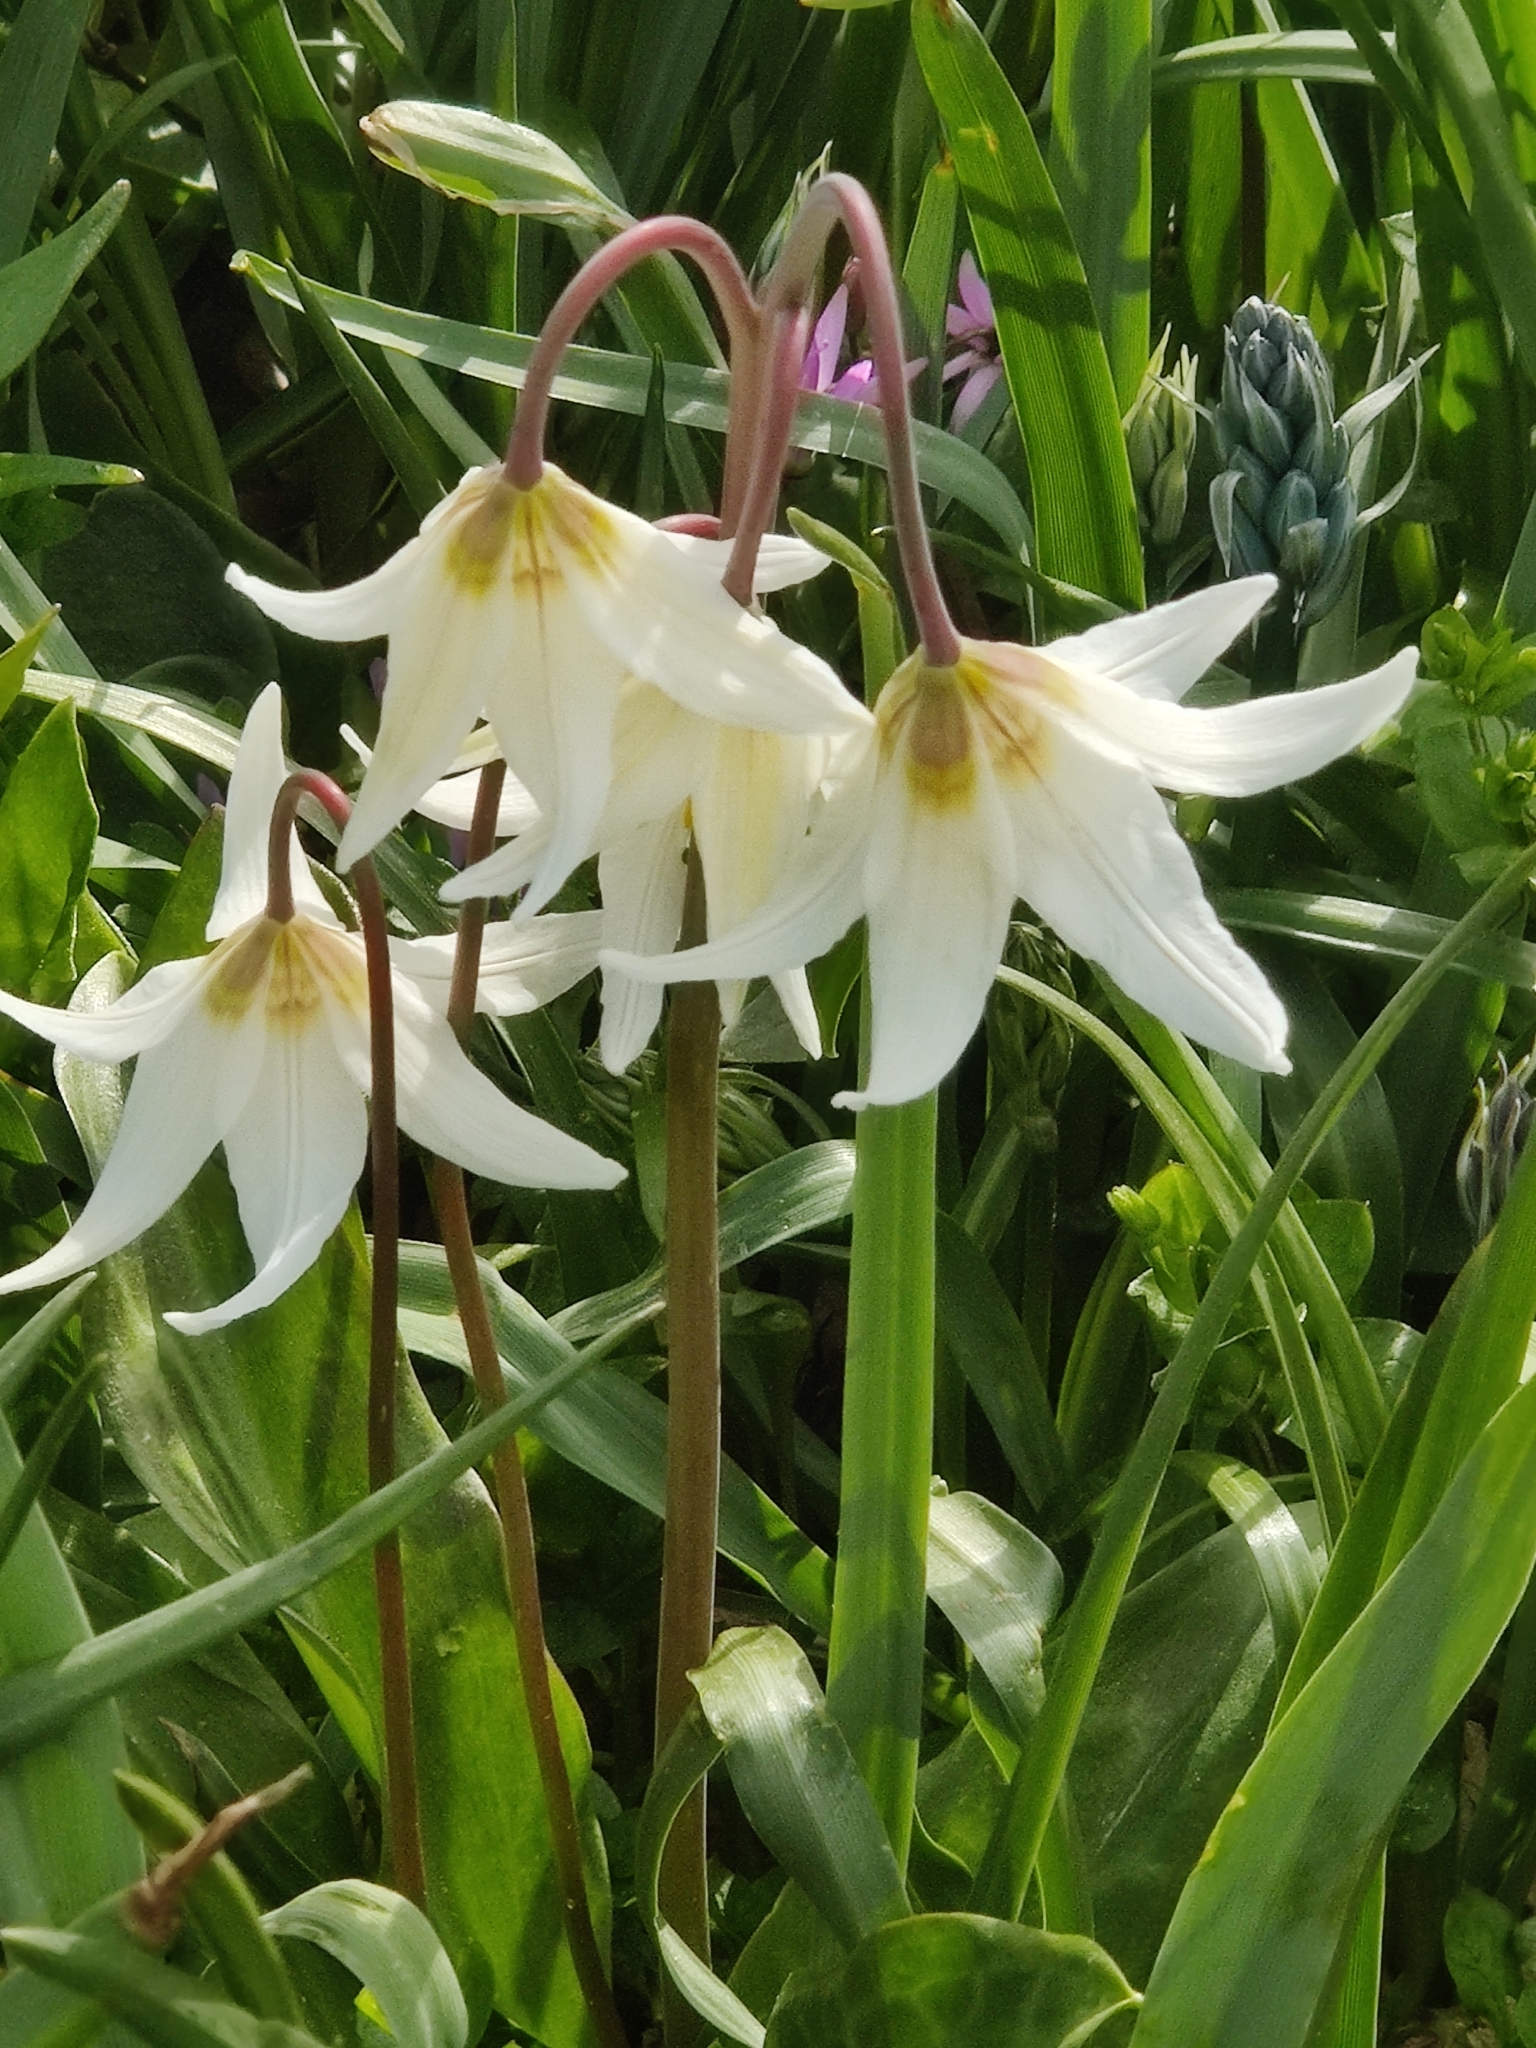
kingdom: Plantae
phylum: Tracheophyta
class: Liliopsida
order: Liliales
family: Liliaceae
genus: Erythronium
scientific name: Erythronium oregonum
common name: Giant adder's-tongue
